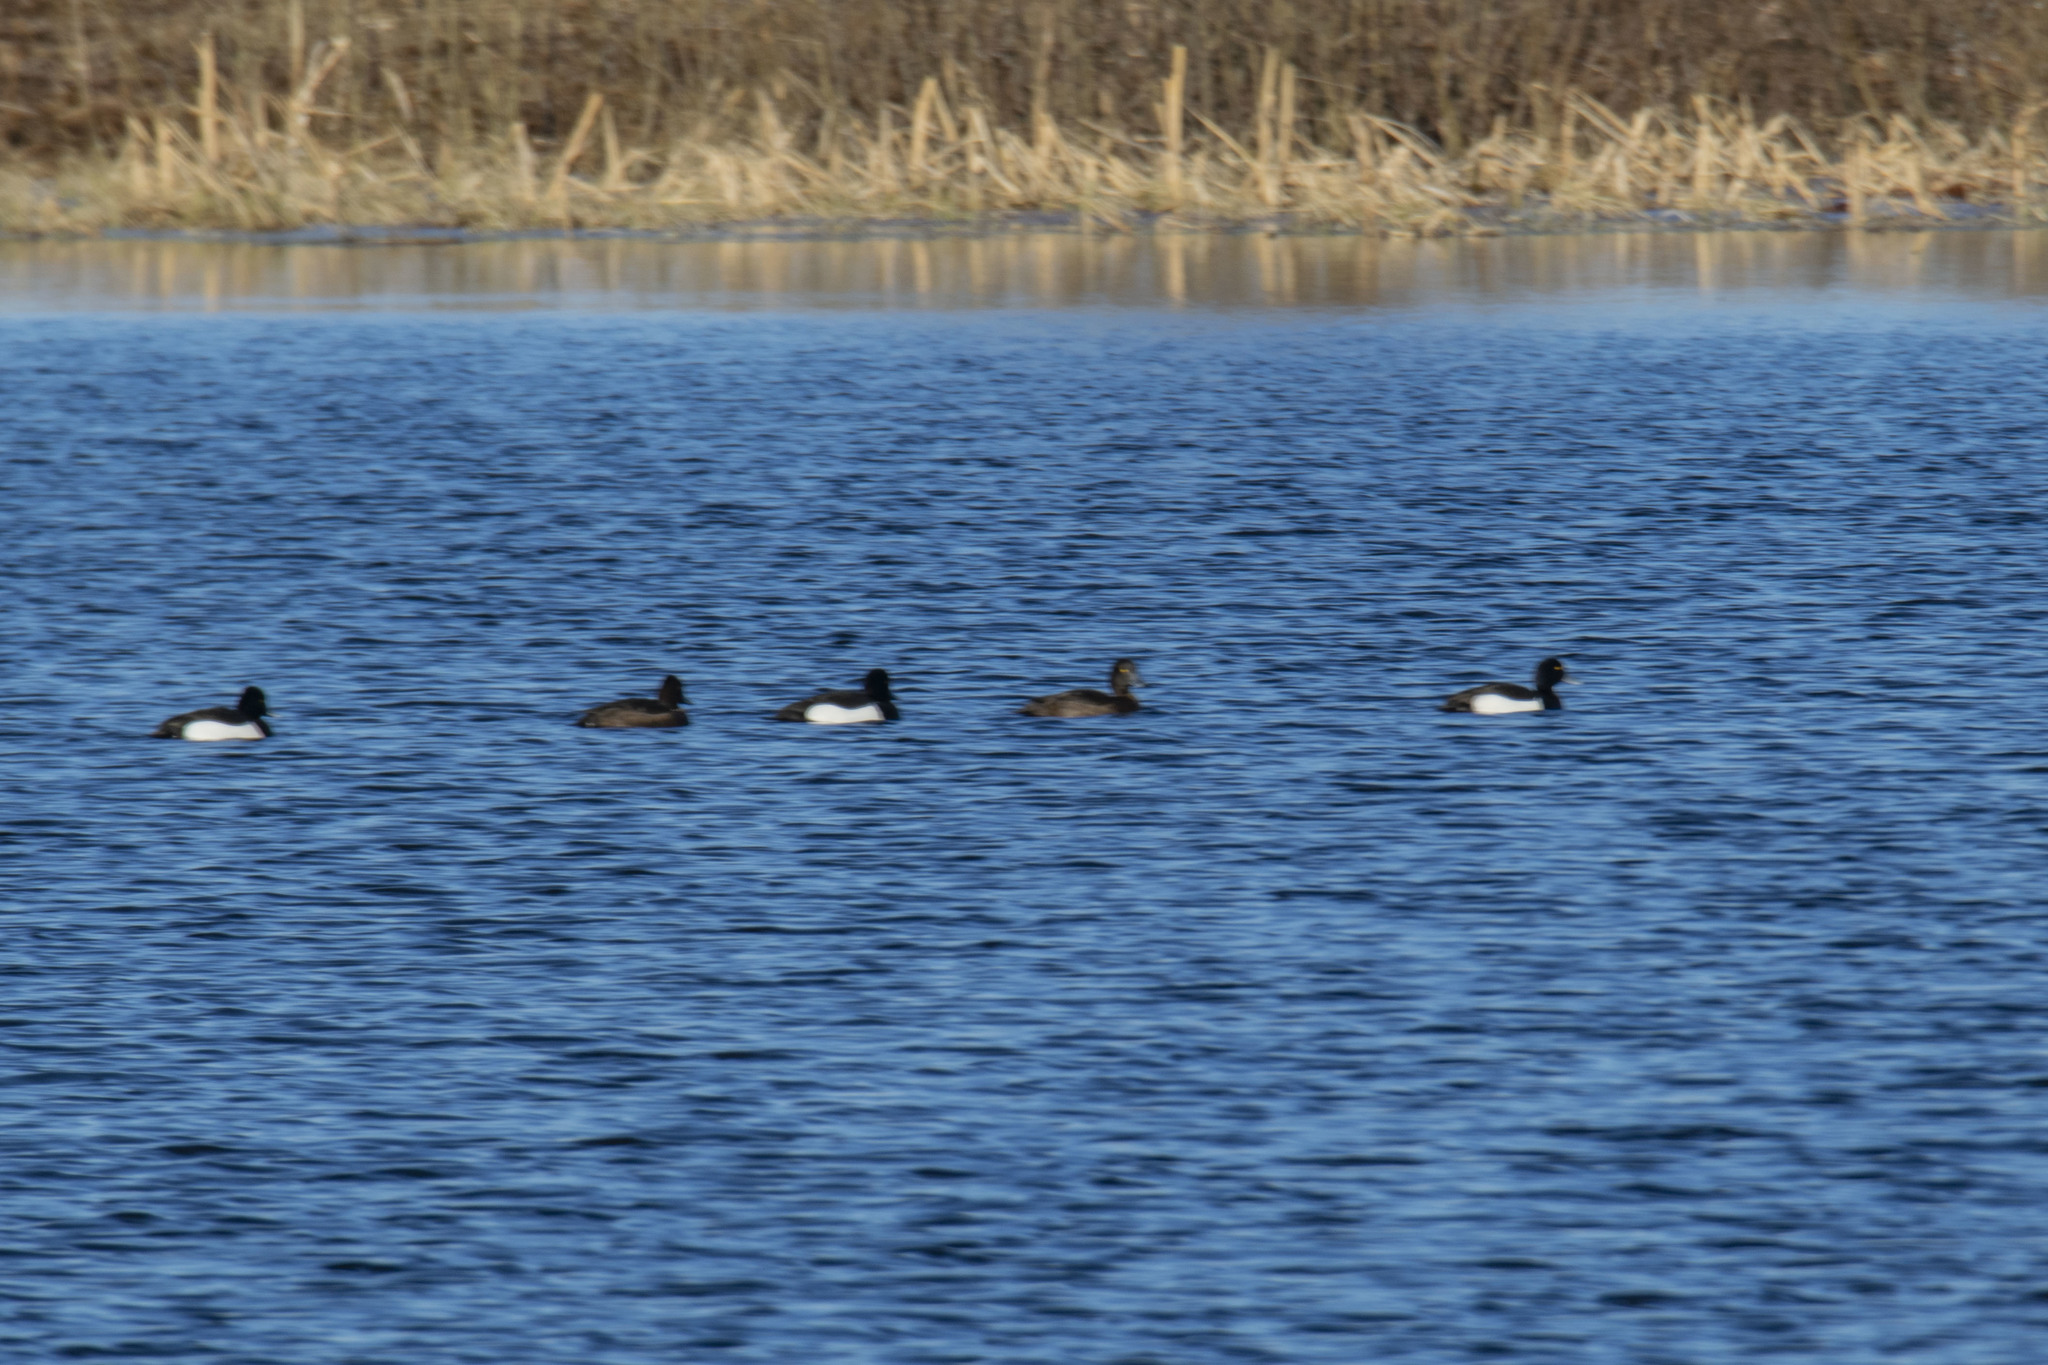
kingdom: Animalia
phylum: Chordata
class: Aves
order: Anseriformes
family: Anatidae
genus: Aythya
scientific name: Aythya fuligula
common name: Tufted duck
